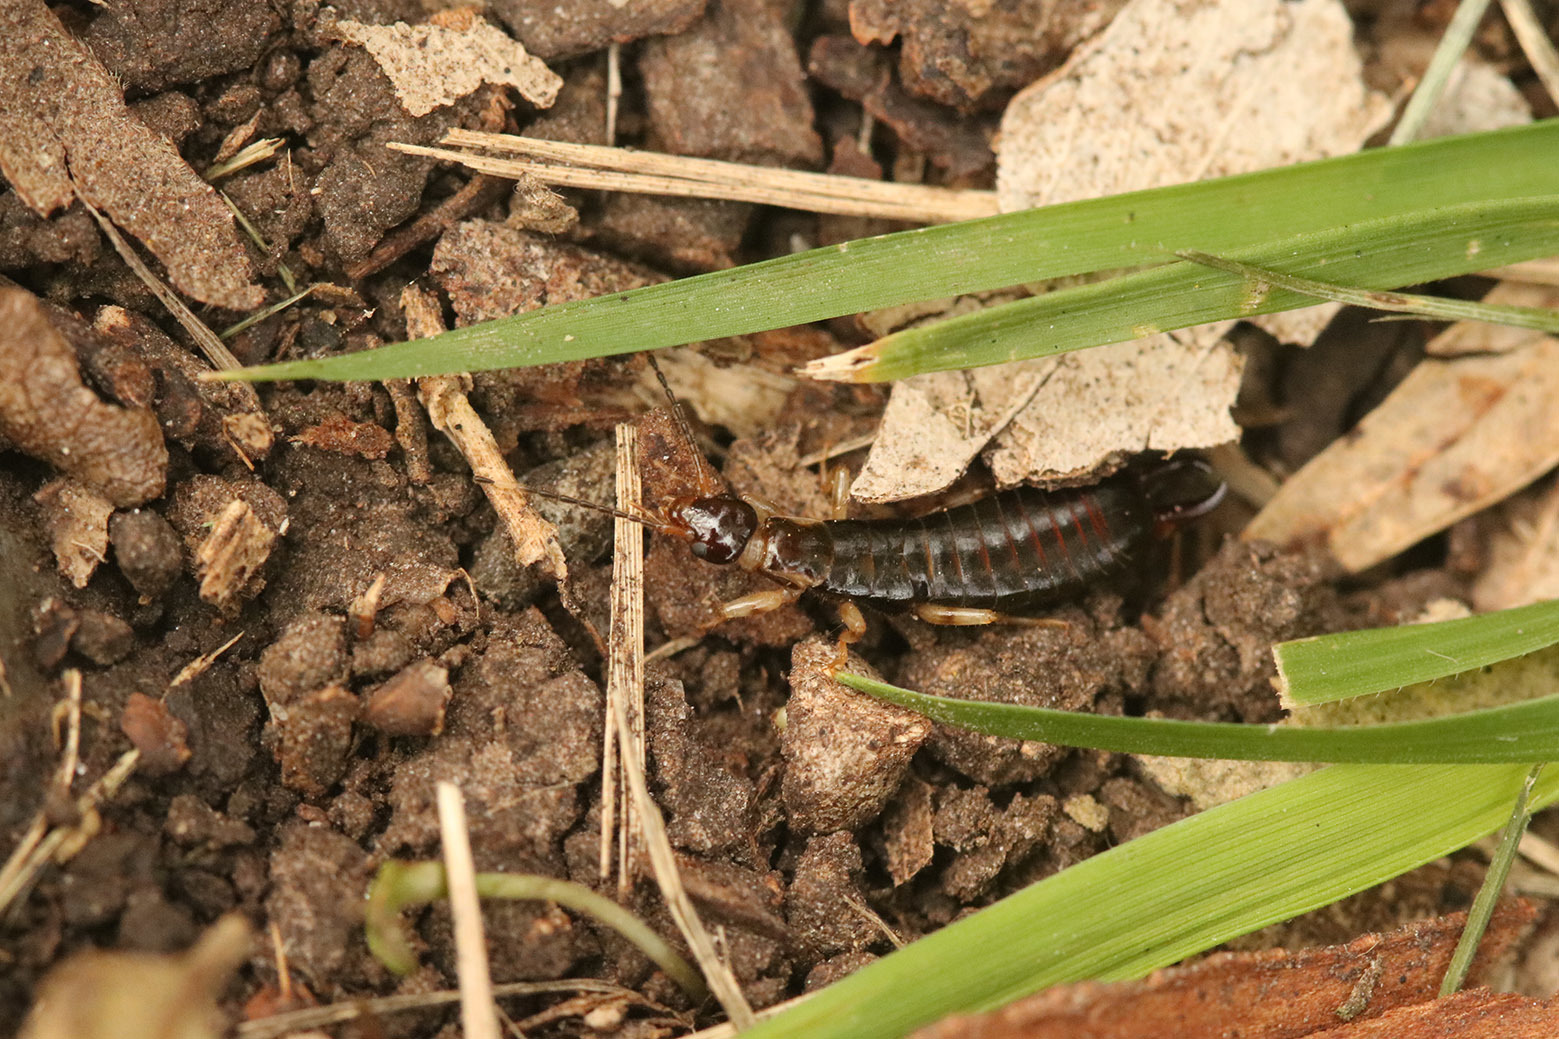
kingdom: Animalia
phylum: Arthropoda
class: Insecta
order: Dermaptera
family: Anisolabididae
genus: Euborellia
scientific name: Euborellia annulipes
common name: Ringlegged earwig
